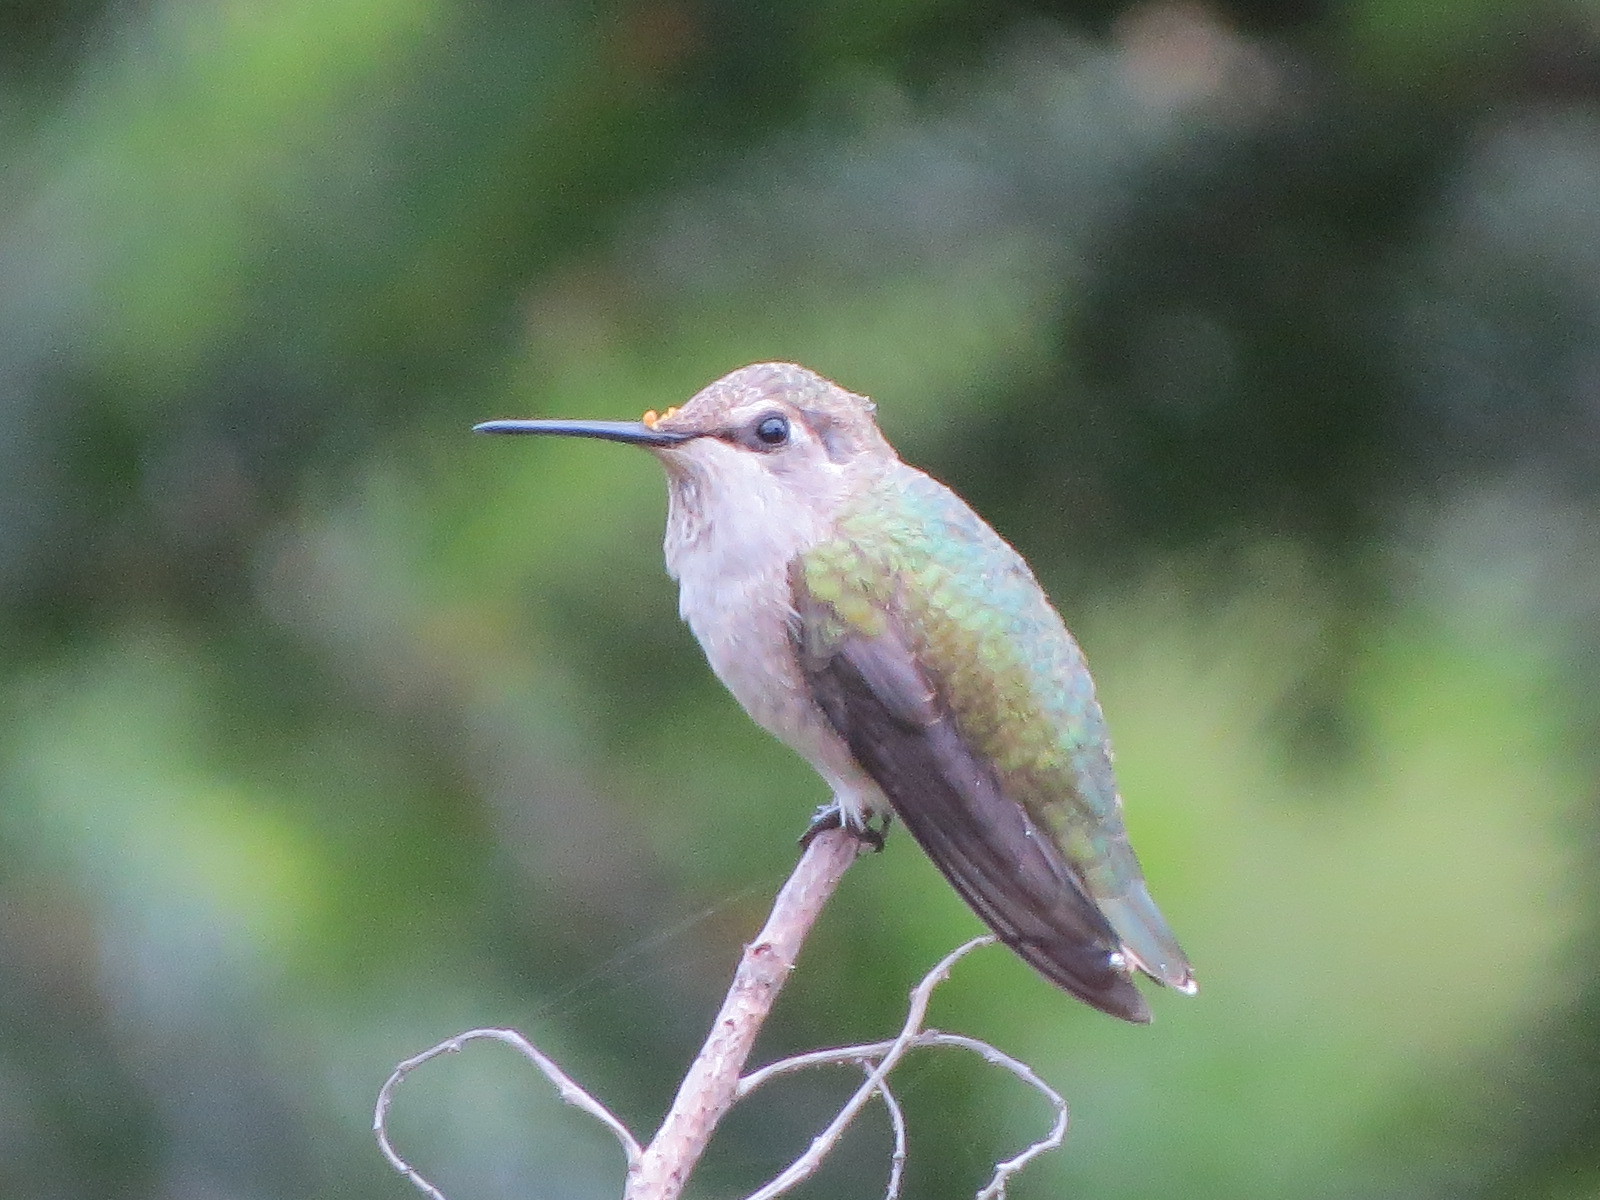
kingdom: Animalia
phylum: Chordata
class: Aves
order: Apodiformes
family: Trochilidae
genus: Calypte
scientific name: Calypte anna
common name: Anna's hummingbird
